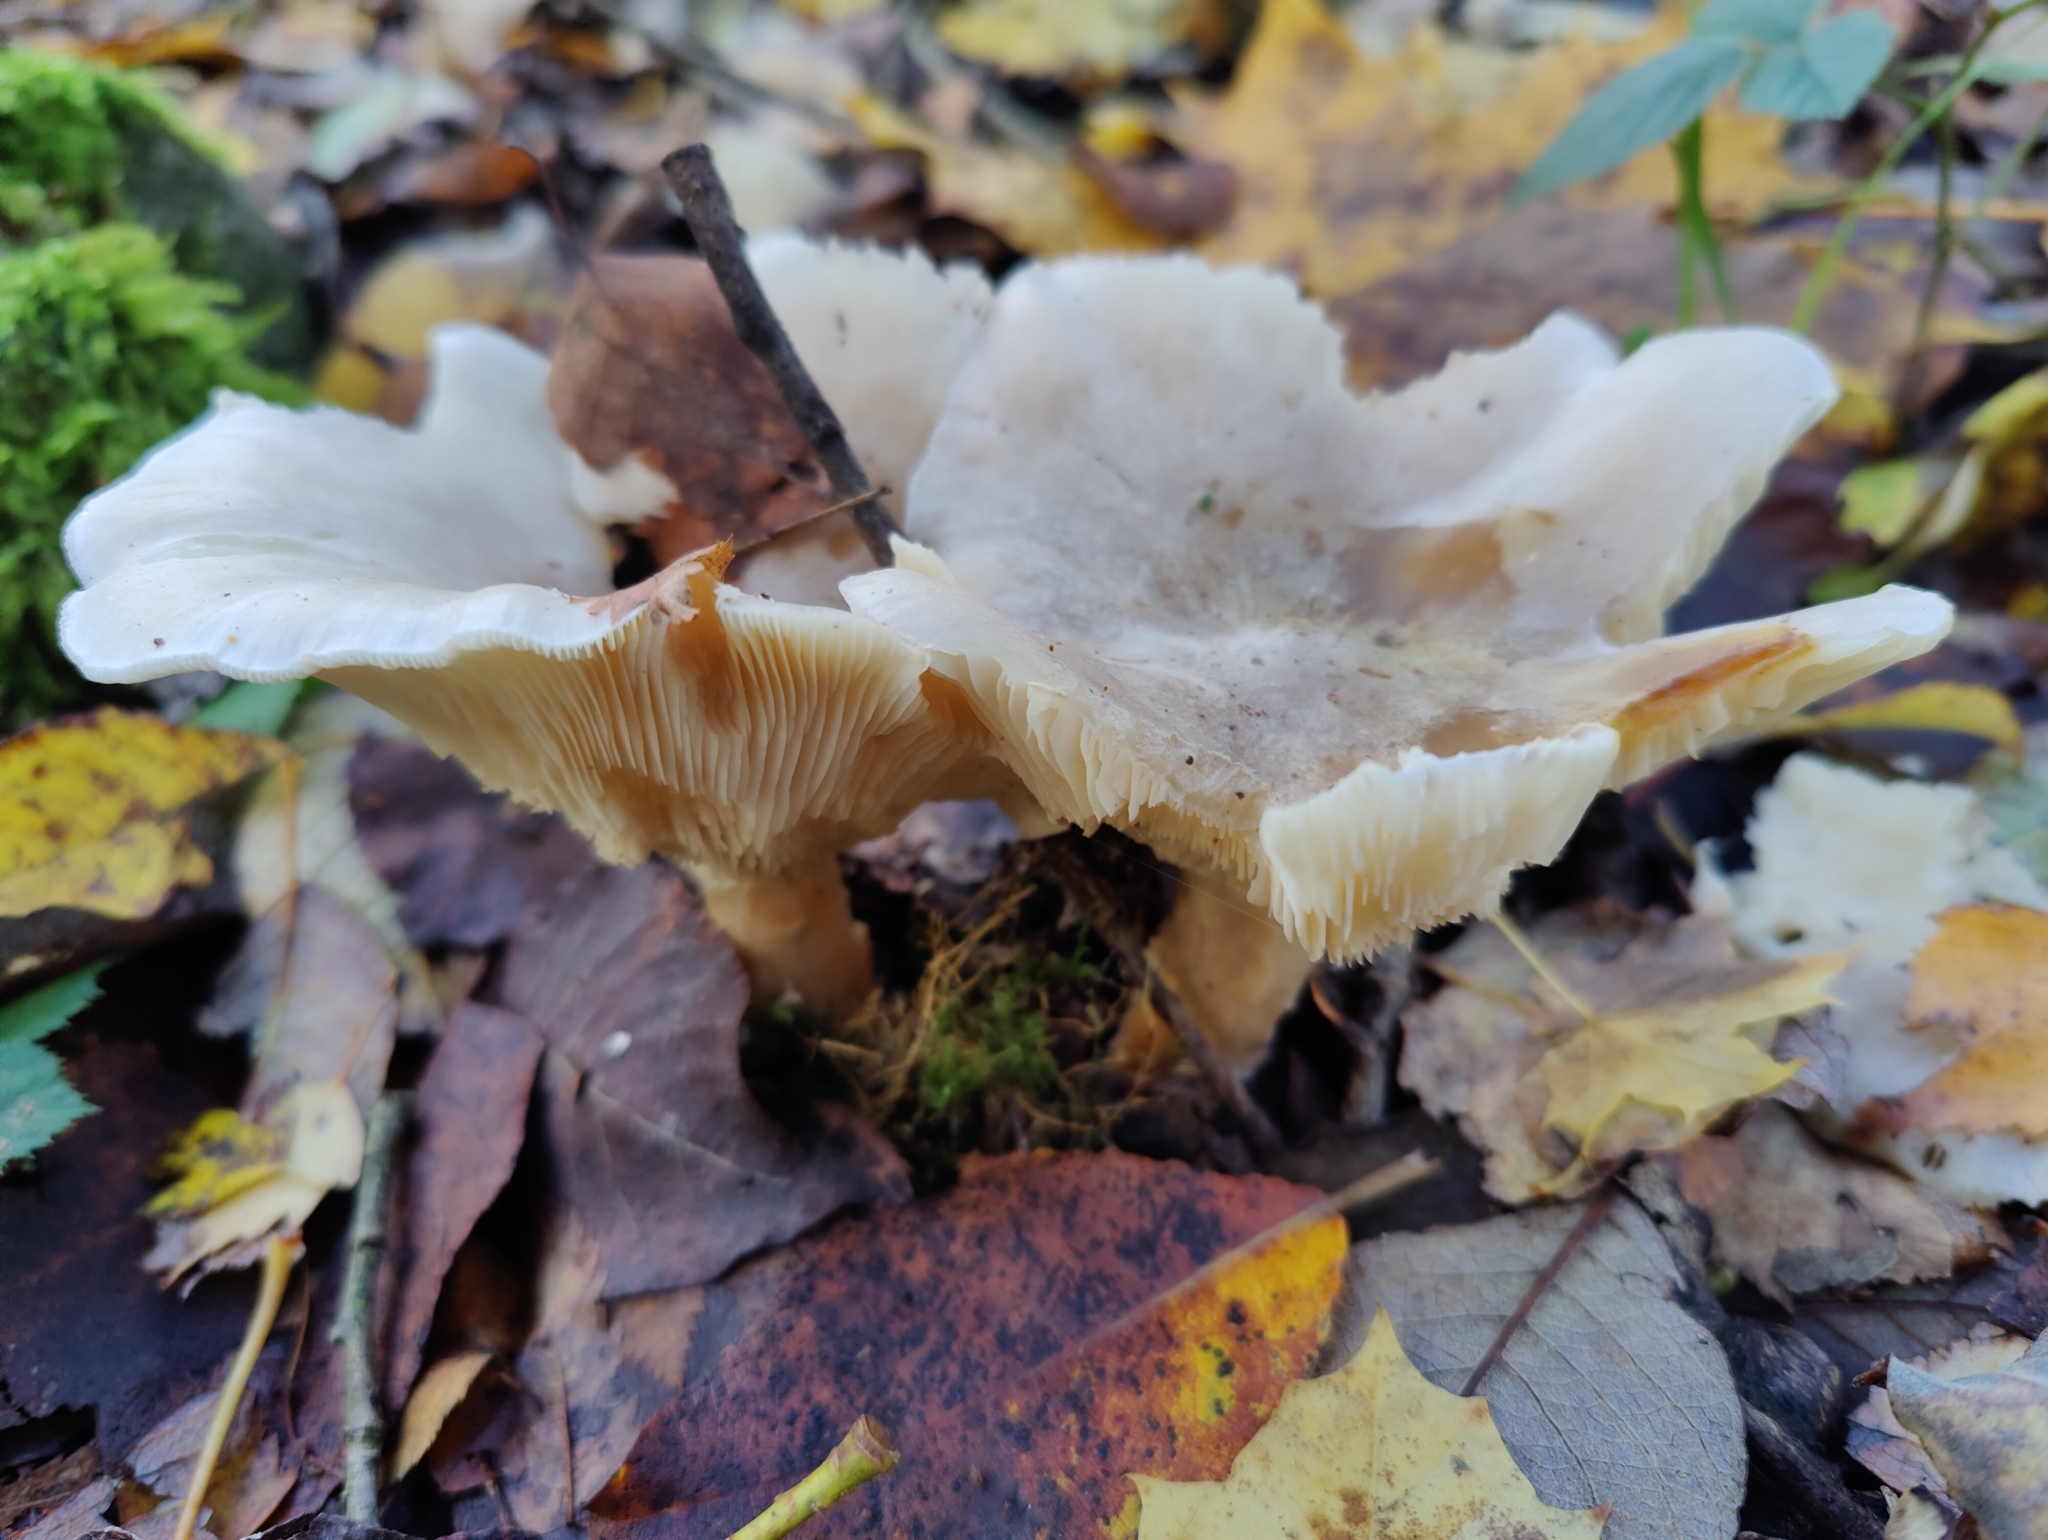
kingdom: Fungi
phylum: Basidiomycota
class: Agaricomycetes
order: Agaricales
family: Tricholomataceae
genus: Clitocybe
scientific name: Clitocybe nebularis
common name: Clouded agaric
